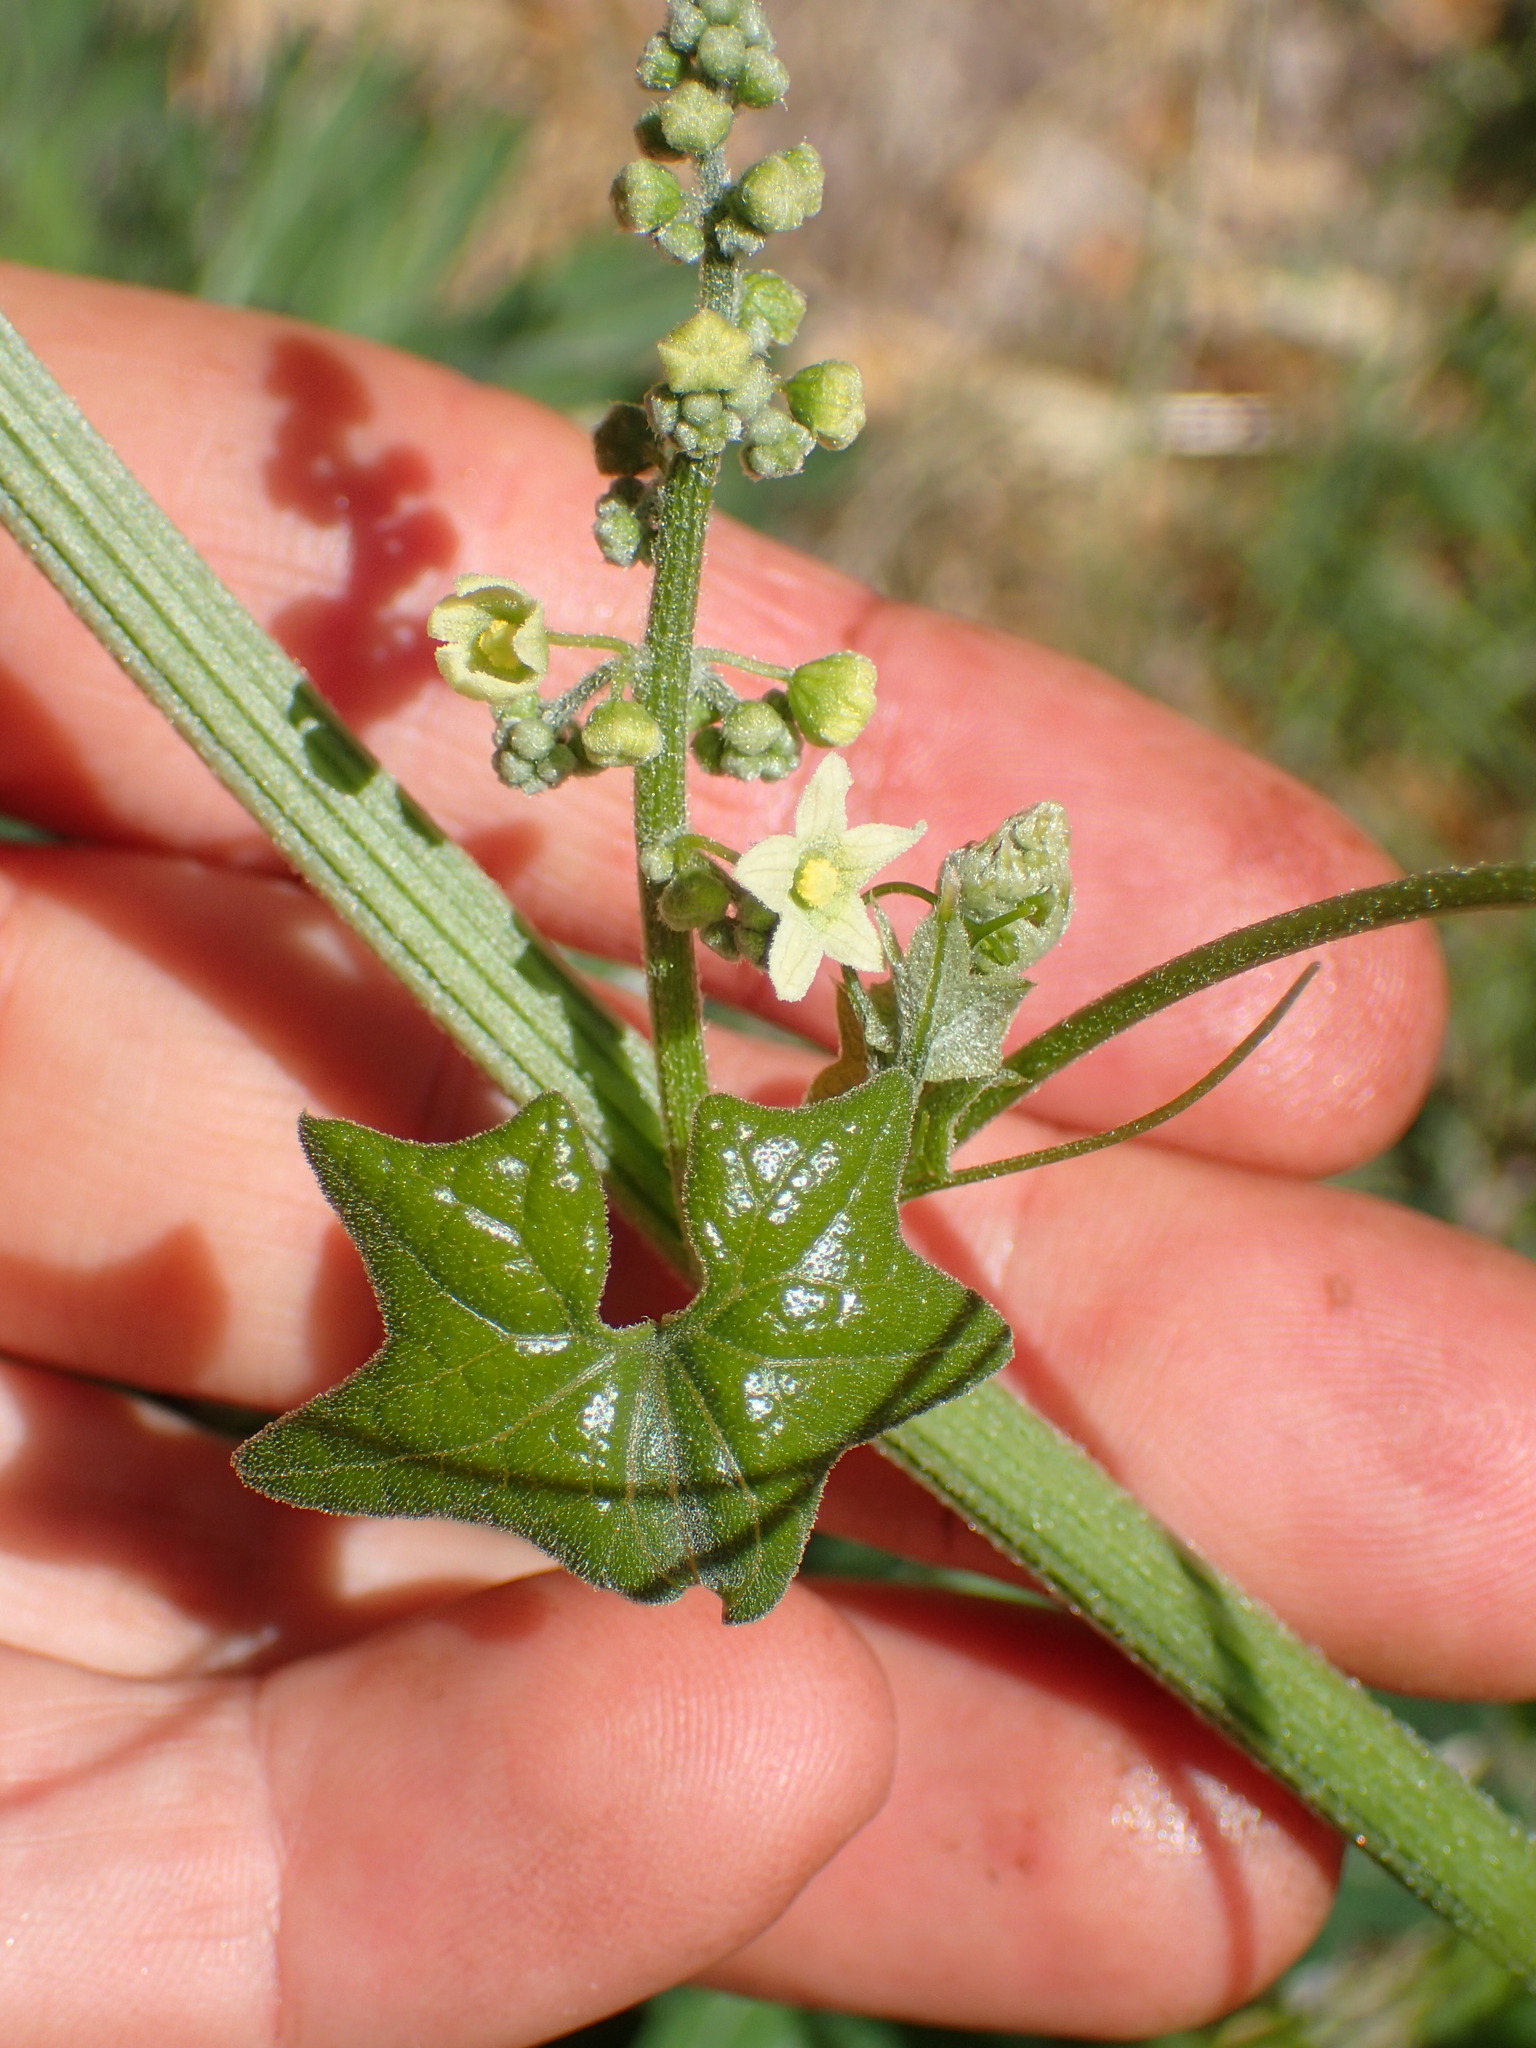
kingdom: Plantae
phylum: Tracheophyta
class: Magnoliopsida
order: Cucurbitales
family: Cucurbitaceae
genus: Marah
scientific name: Marah fabacea
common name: California manroot
